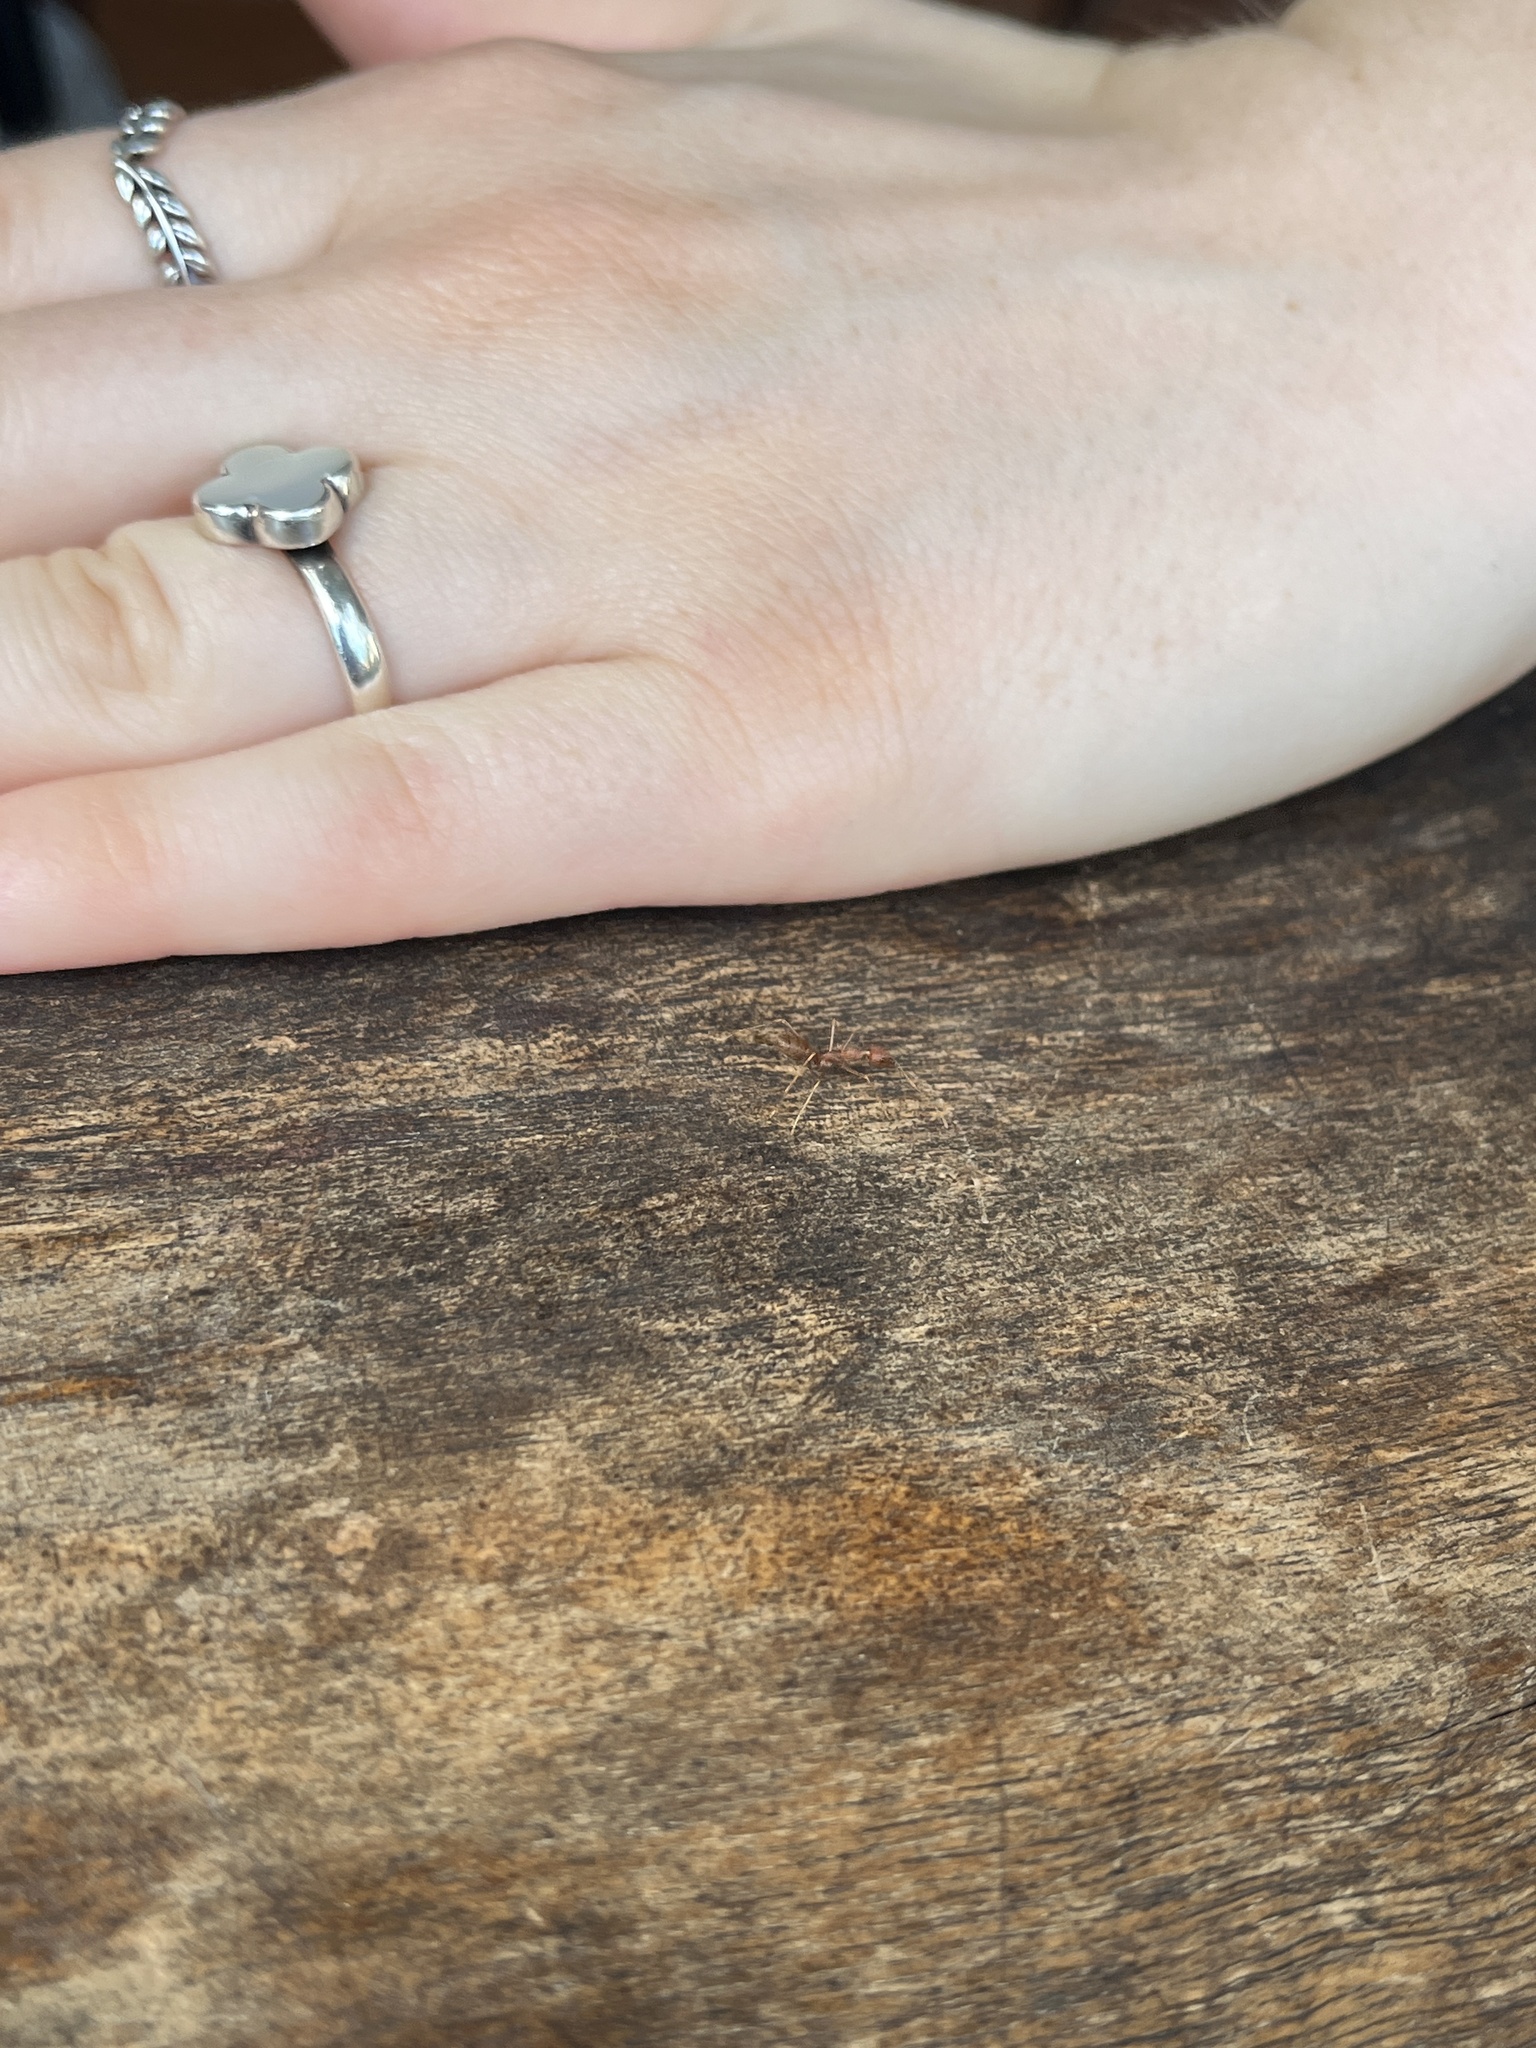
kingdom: Animalia
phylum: Arthropoda
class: Insecta
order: Hymenoptera
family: Formicidae
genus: Oecophylla
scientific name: Oecophylla smaragdina
